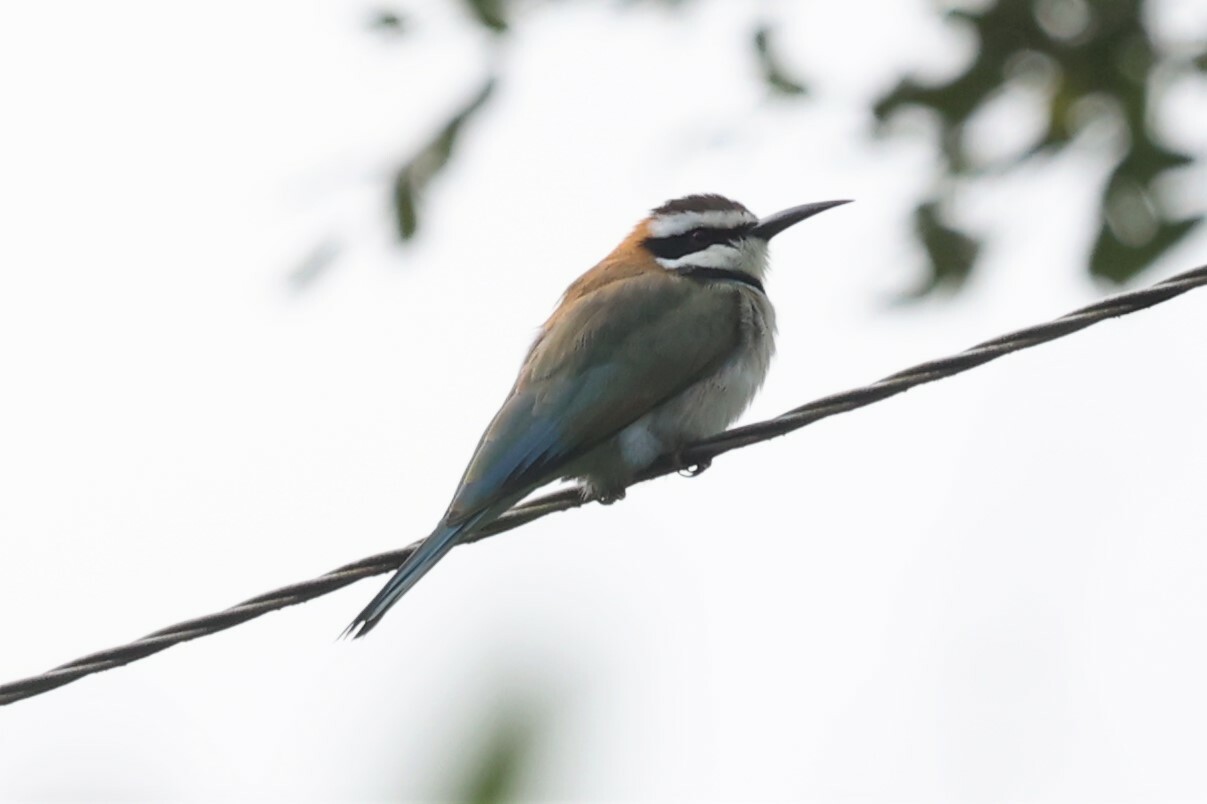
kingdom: Animalia
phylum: Chordata
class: Aves
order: Coraciiformes
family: Meropidae
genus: Merops
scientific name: Merops albicollis
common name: White-throated bee-eater
